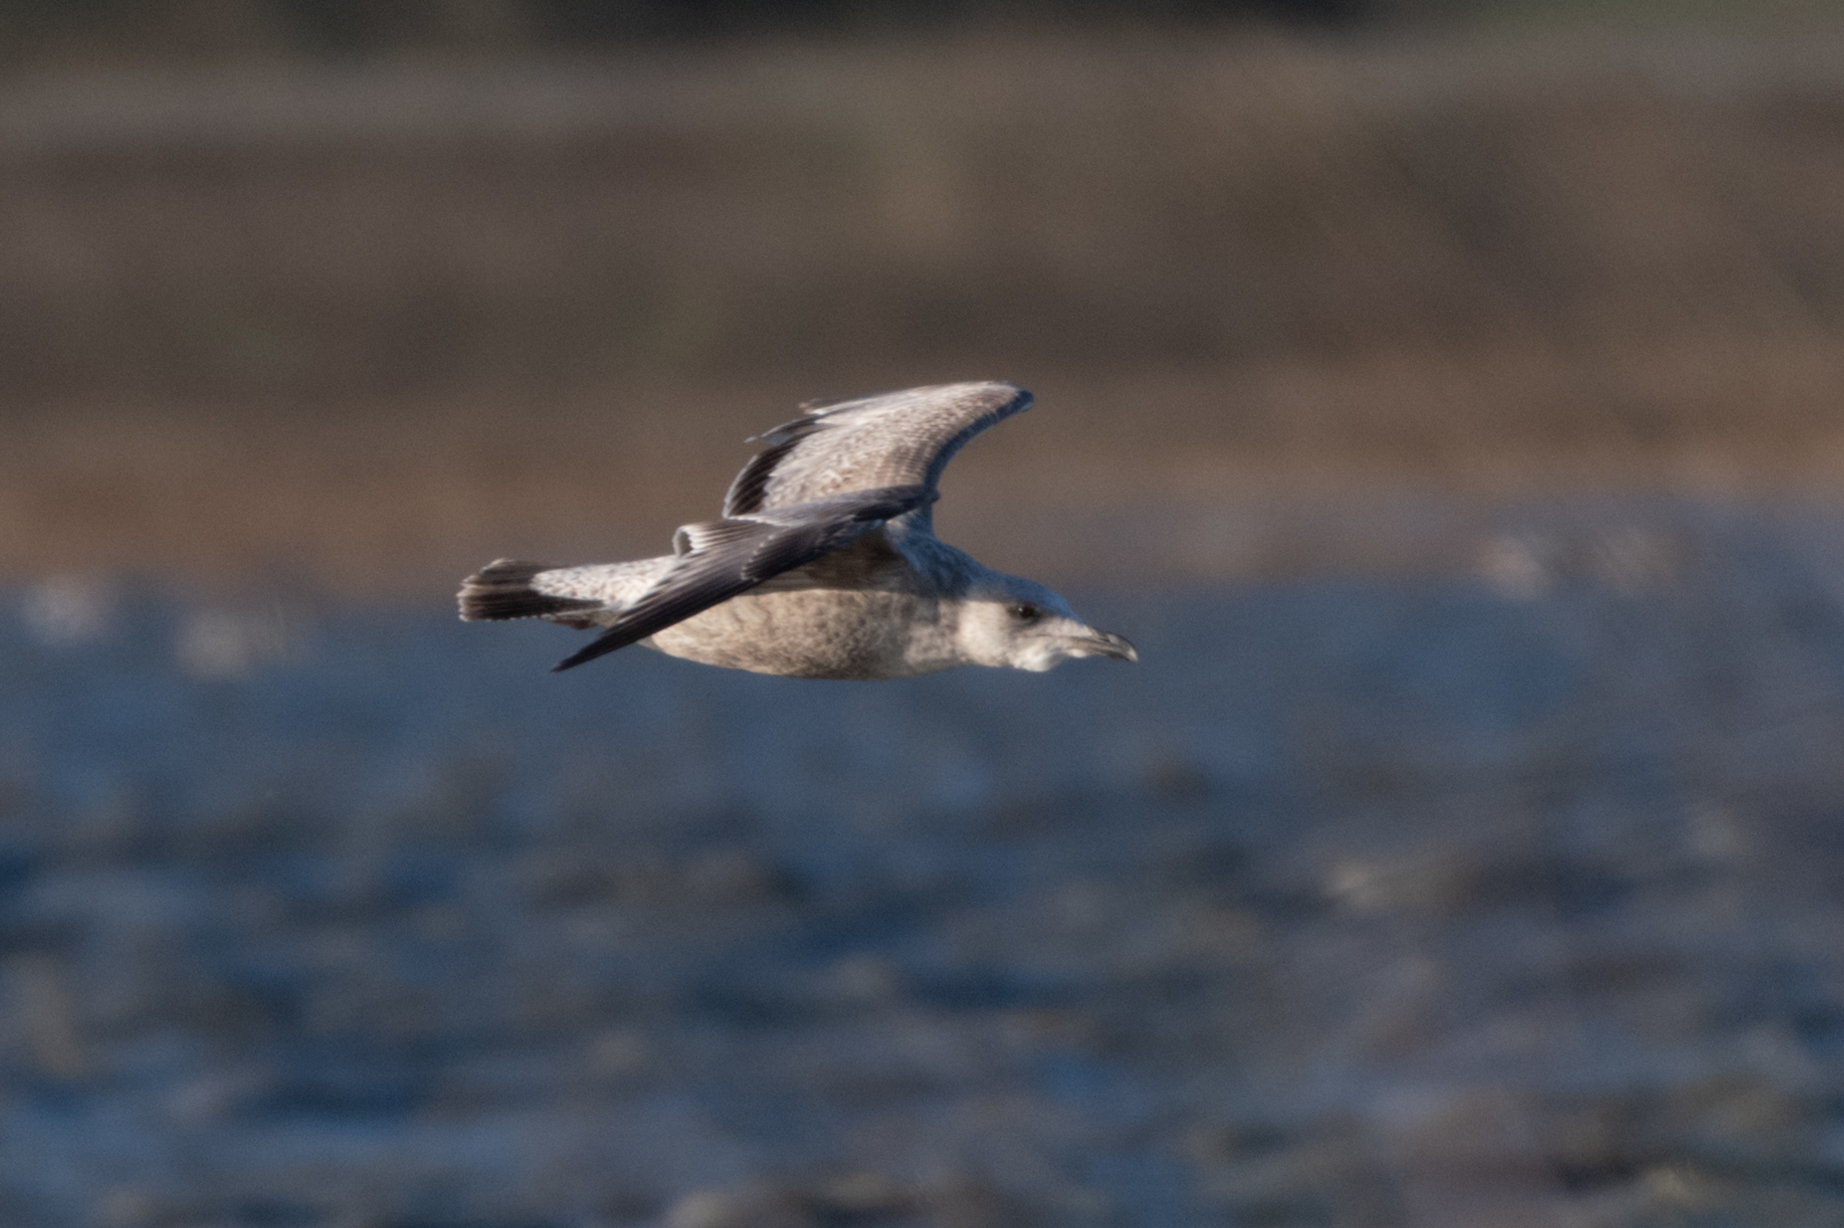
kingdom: Animalia
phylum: Chordata
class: Aves
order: Charadriiformes
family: Laridae
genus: Larus
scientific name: Larus argentatus
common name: Herring gull
